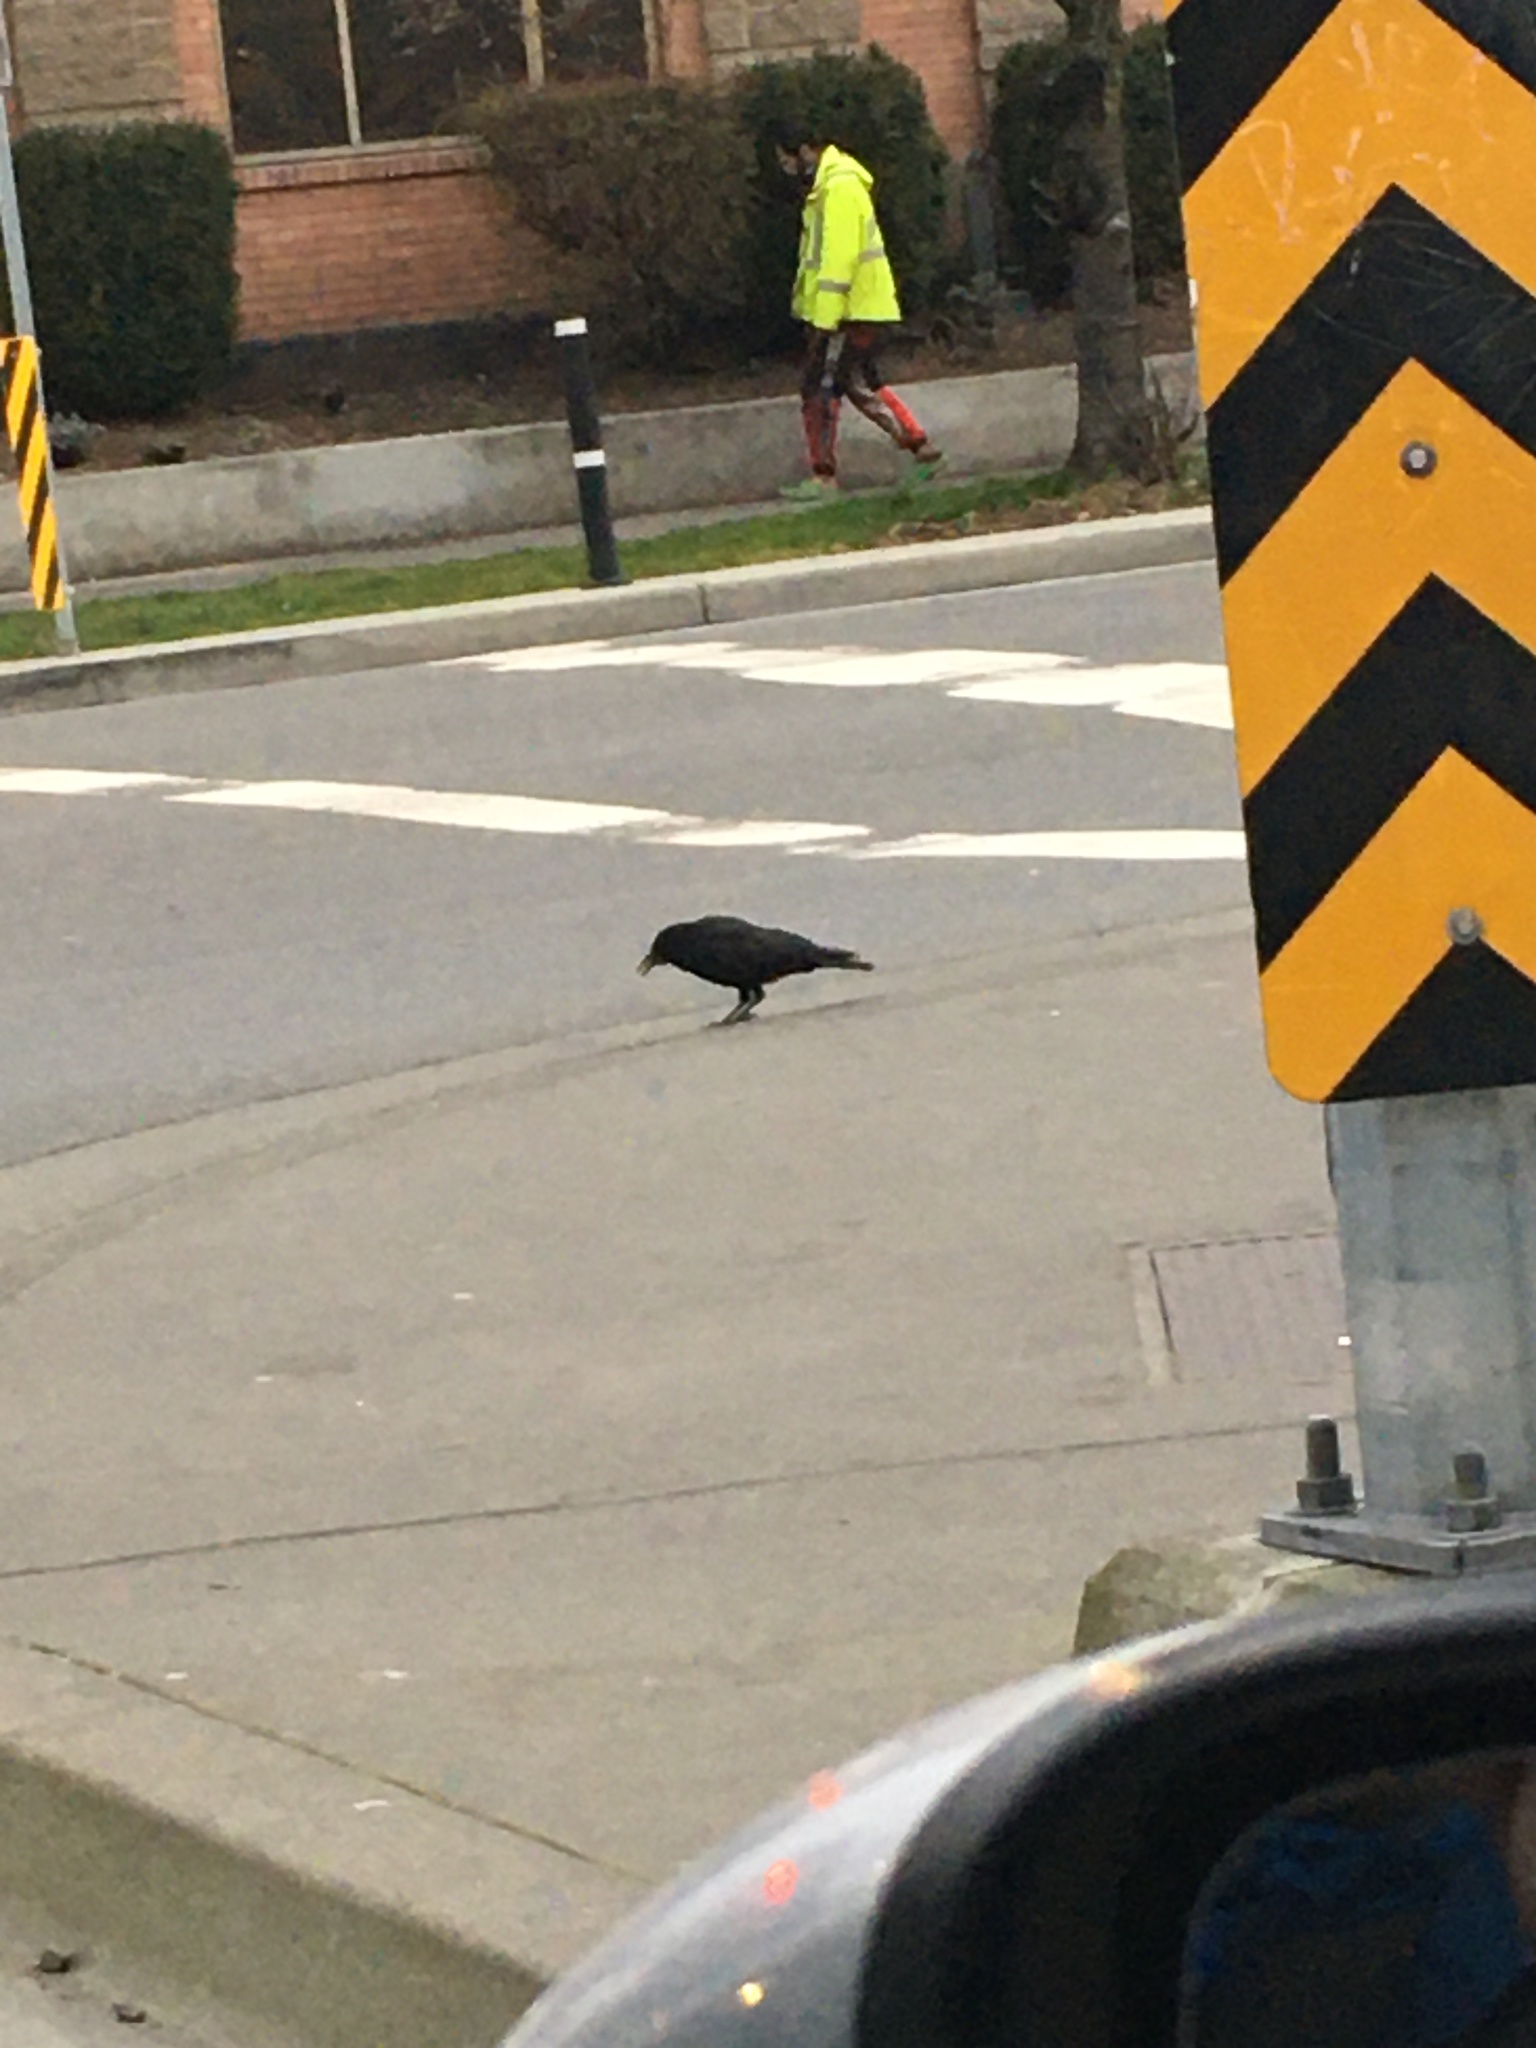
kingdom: Animalia
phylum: Chordata
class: Aves
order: Passeriformes
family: Corvidae
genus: Corvus
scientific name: Corvus brachyrhynchos
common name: American crow
